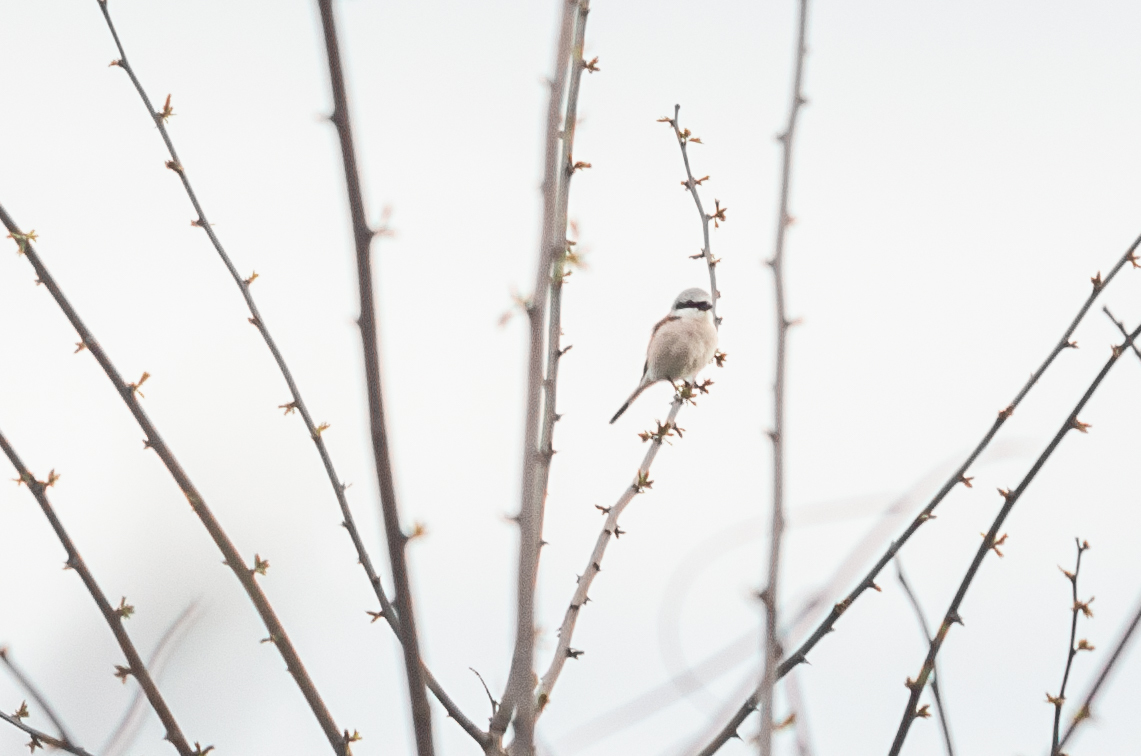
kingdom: Animalia
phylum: Chordata
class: Aves
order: Passeriformes
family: Laniidae
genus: Lanius
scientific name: Lanius collurio
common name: Red-backed shrike
